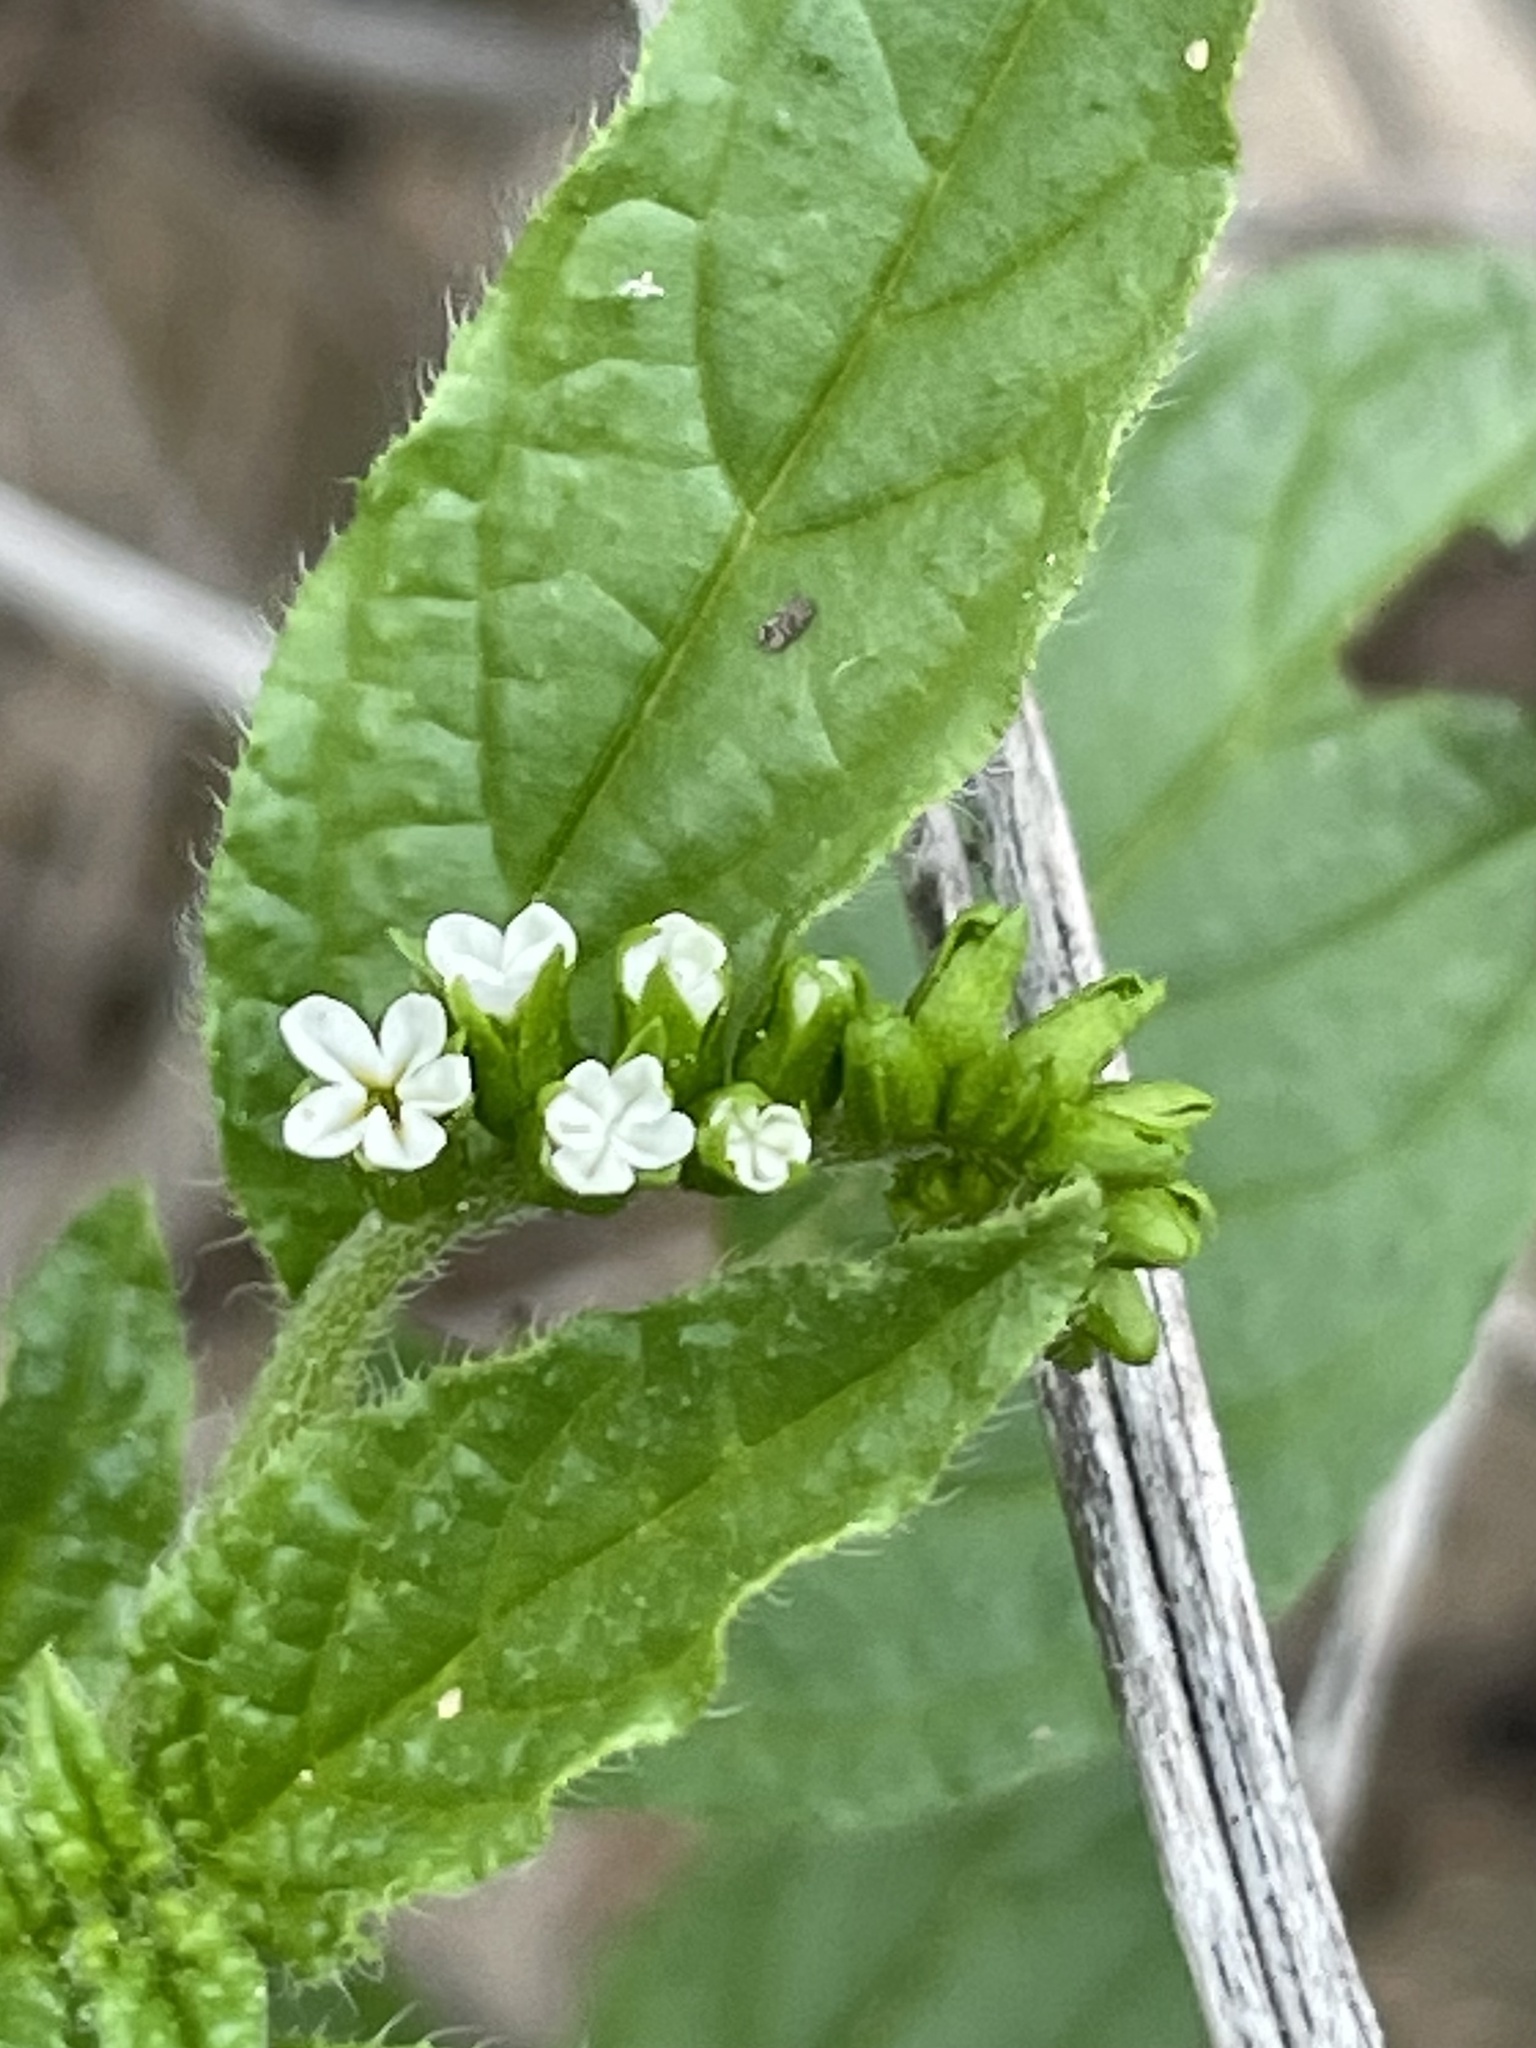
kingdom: Plantae
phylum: Tracheophyta
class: Magnoliopsida
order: Boraginales
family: Heliotropiaceae
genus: Heliotropium
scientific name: Heliotropium angiospermum
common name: Eye bright
